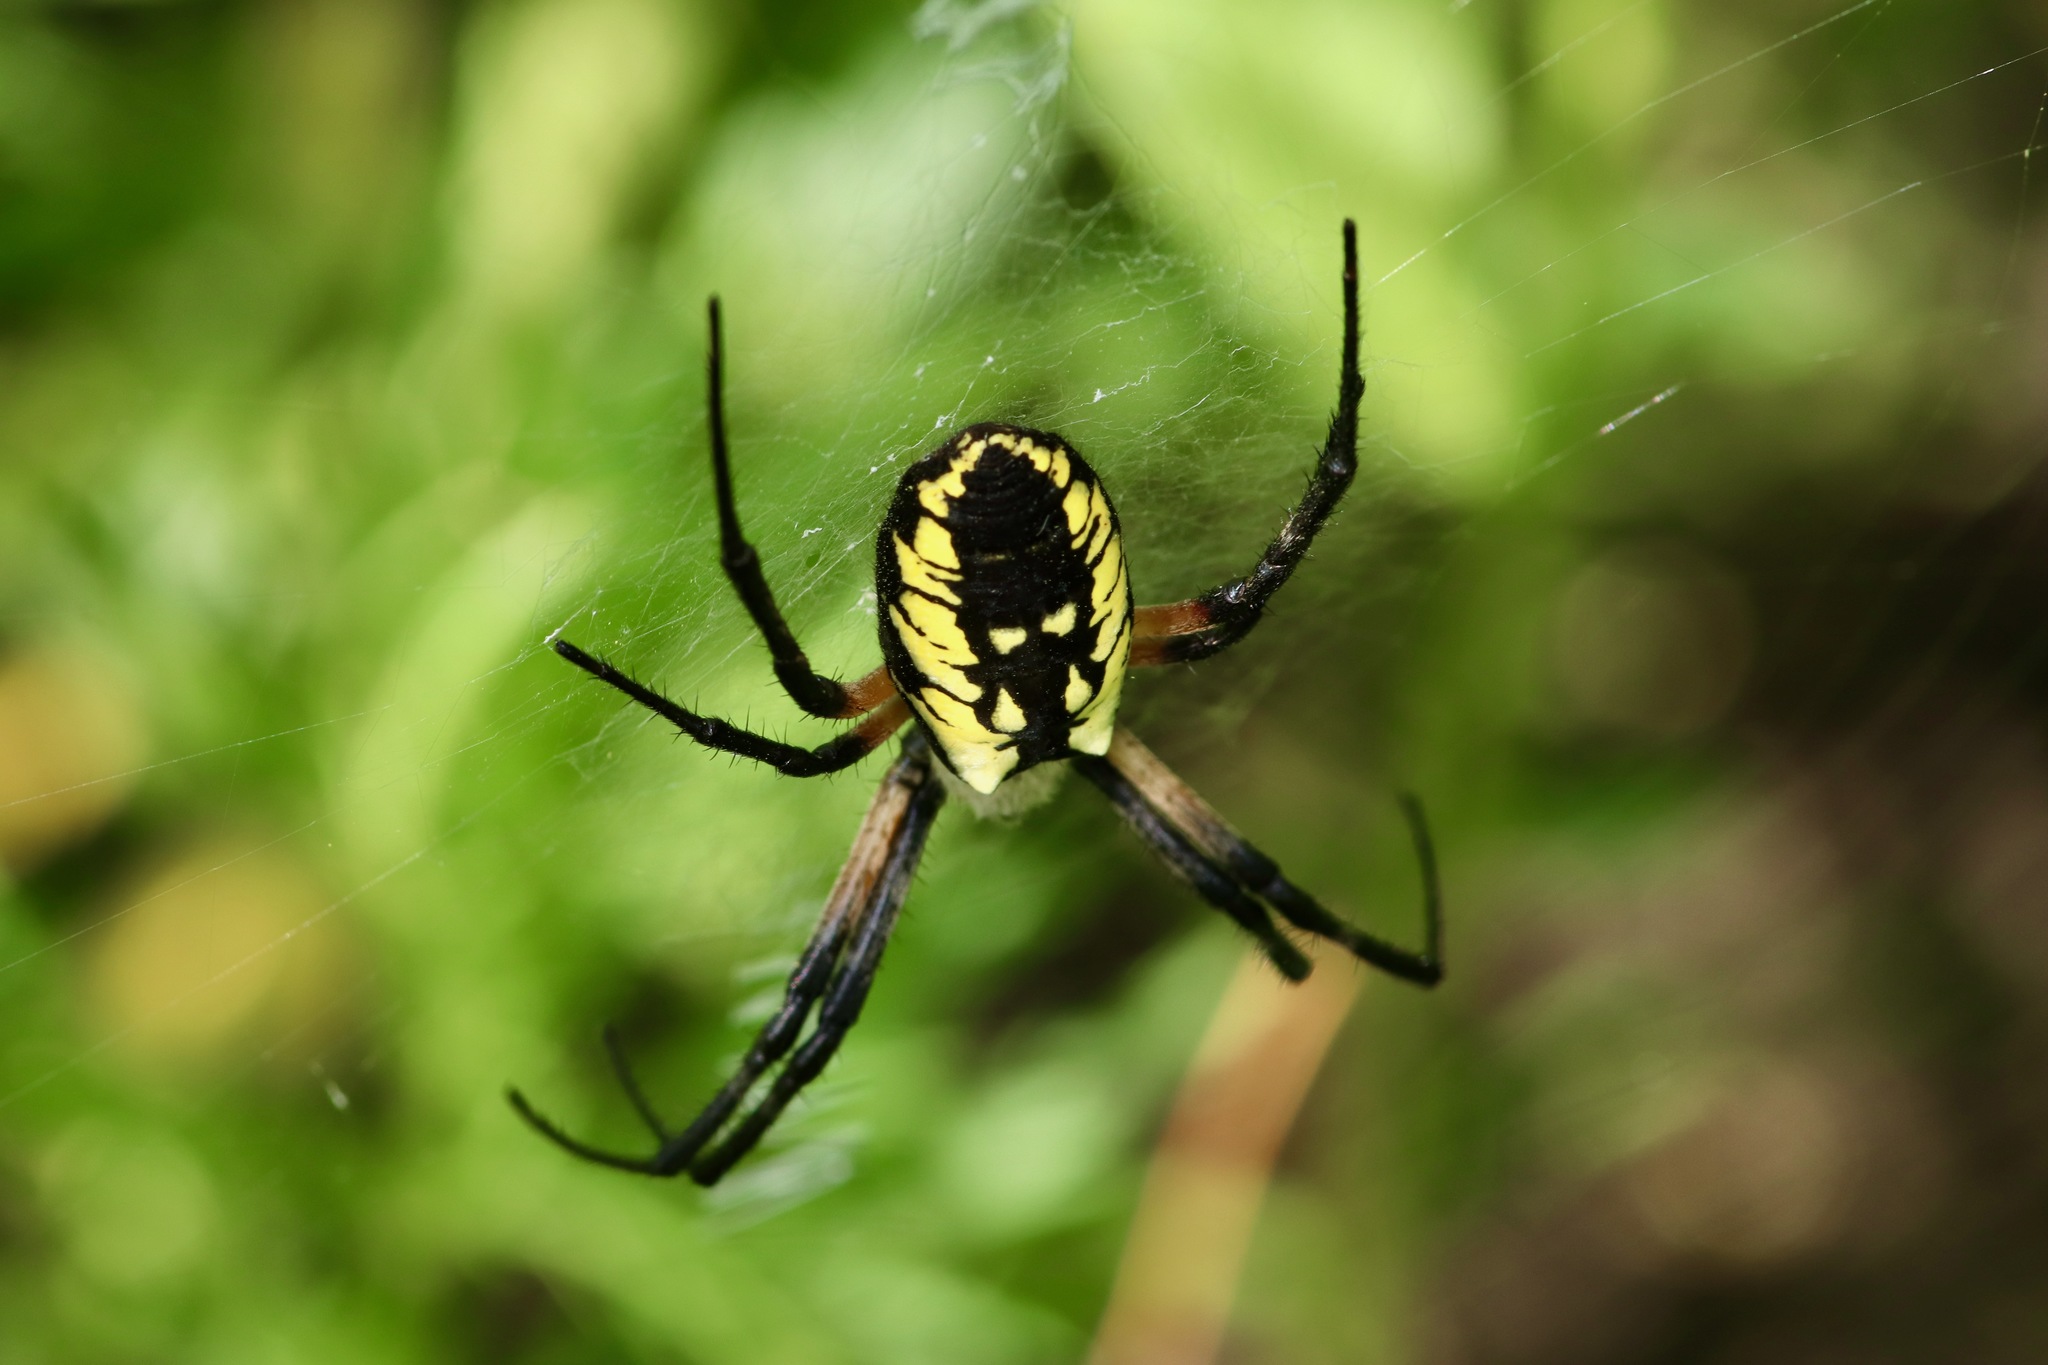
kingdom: Animalia
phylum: Arthropoda
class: Arachnida
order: Araneae
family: Araneidae
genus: Argiope
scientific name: Argiope aurantia
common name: Orb weavers
